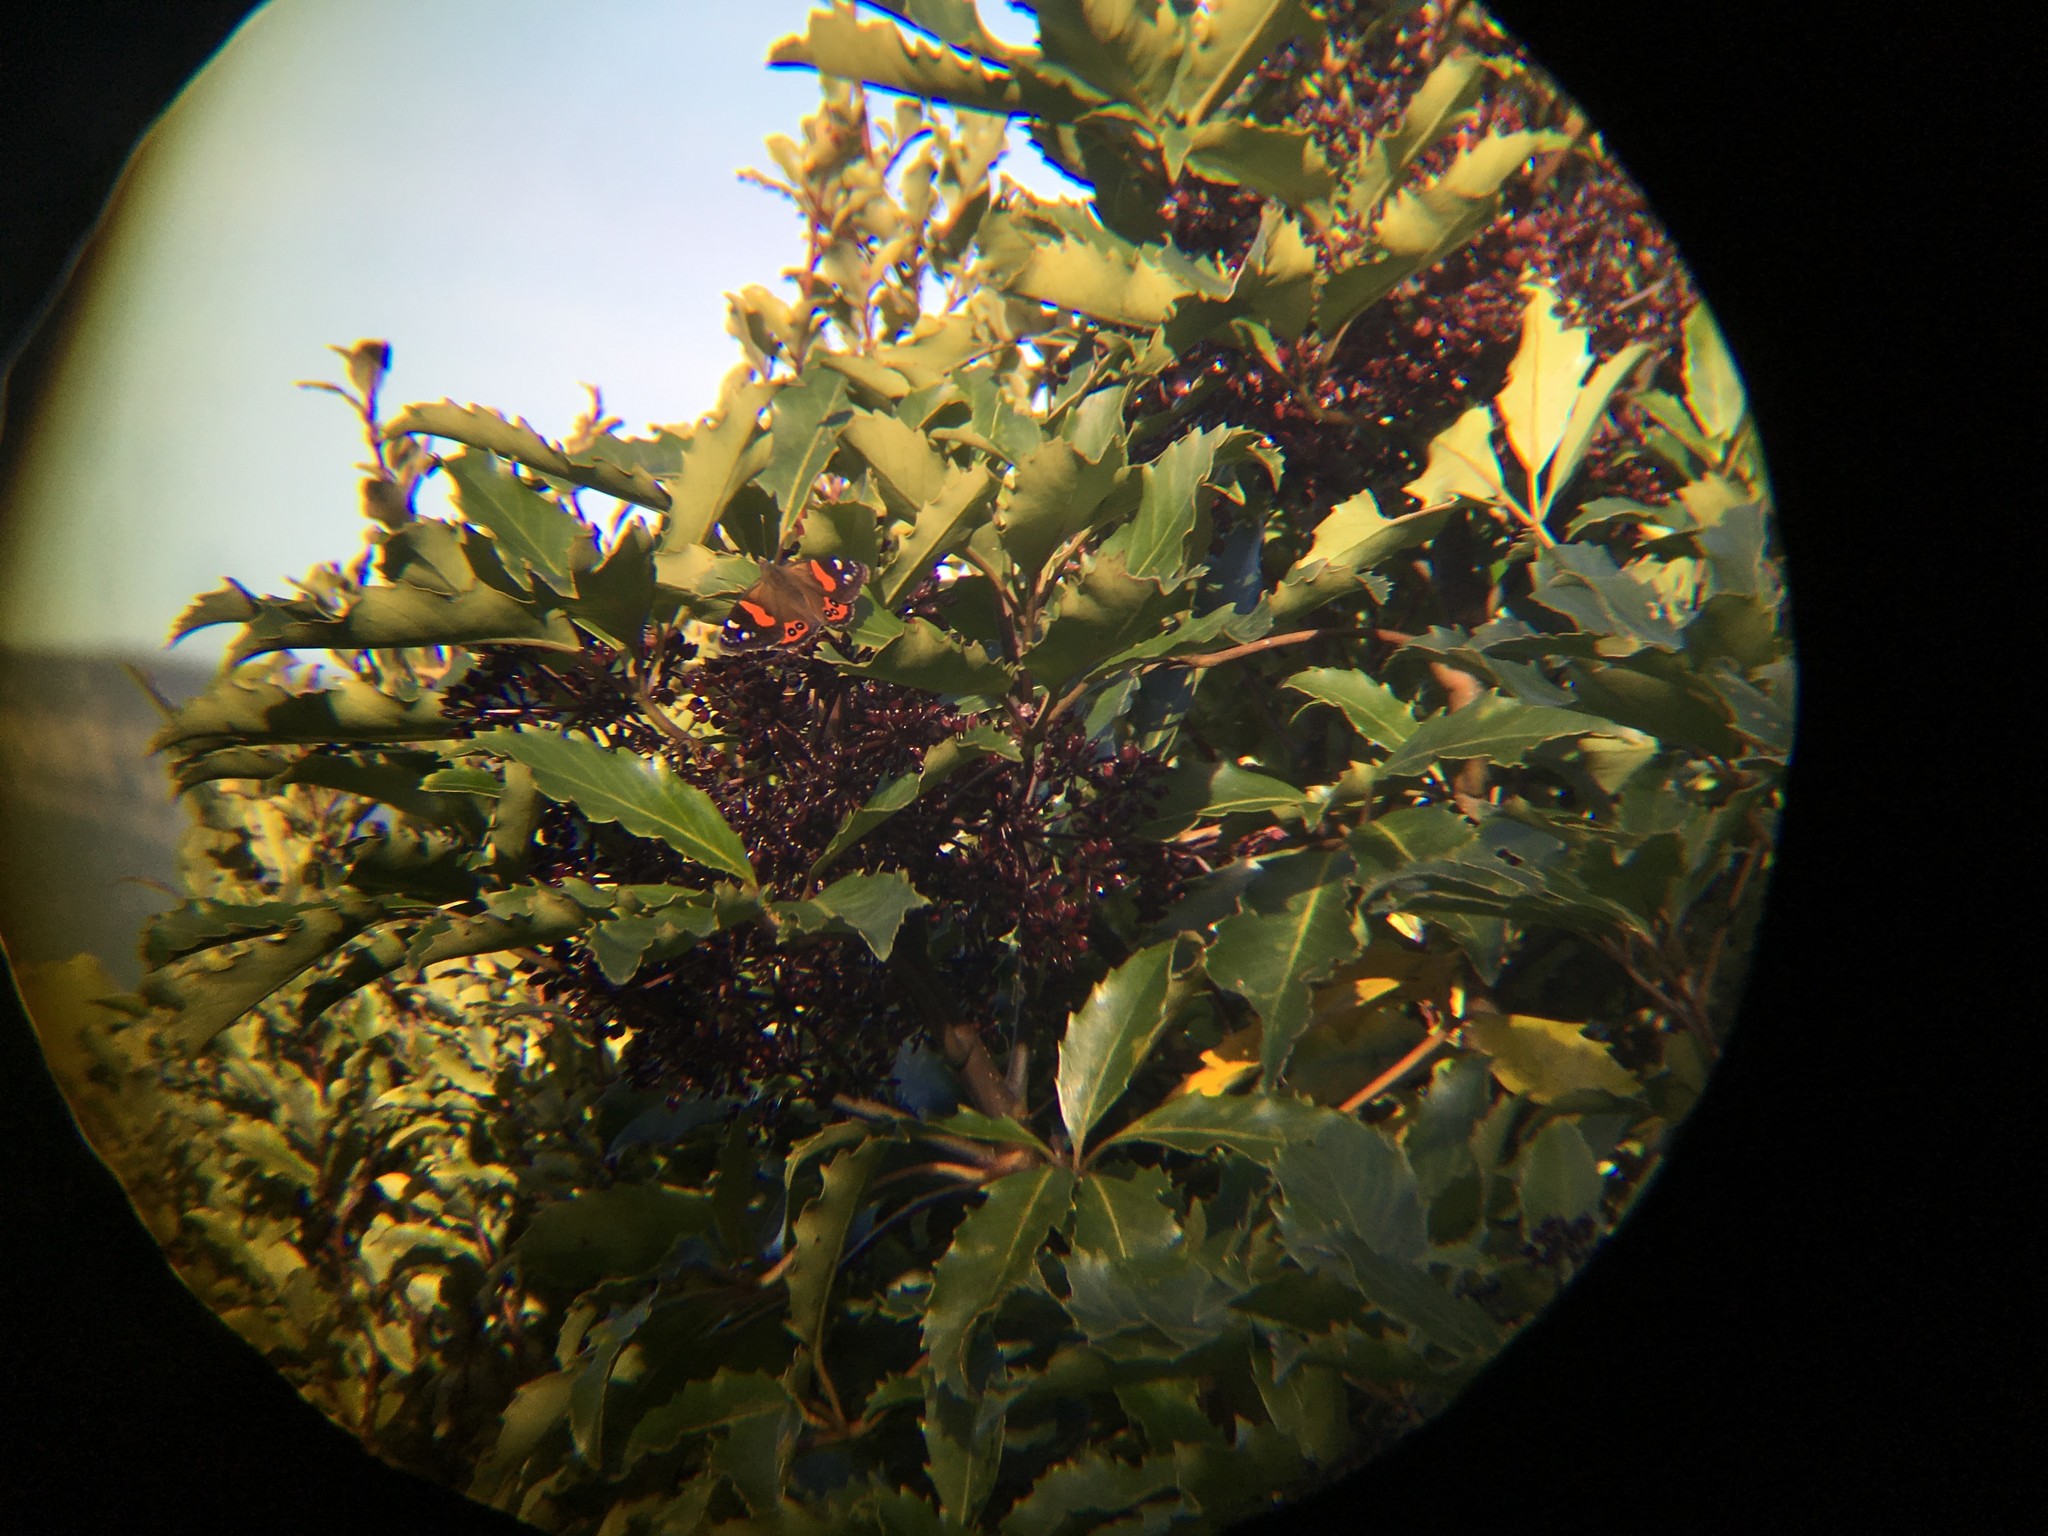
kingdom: Animalia
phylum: Arthropoda
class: Insecta
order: Lepidoptera
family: Nymphalidae
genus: Vanessa
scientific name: Vanessa gonerilla
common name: New zealand red admiral
